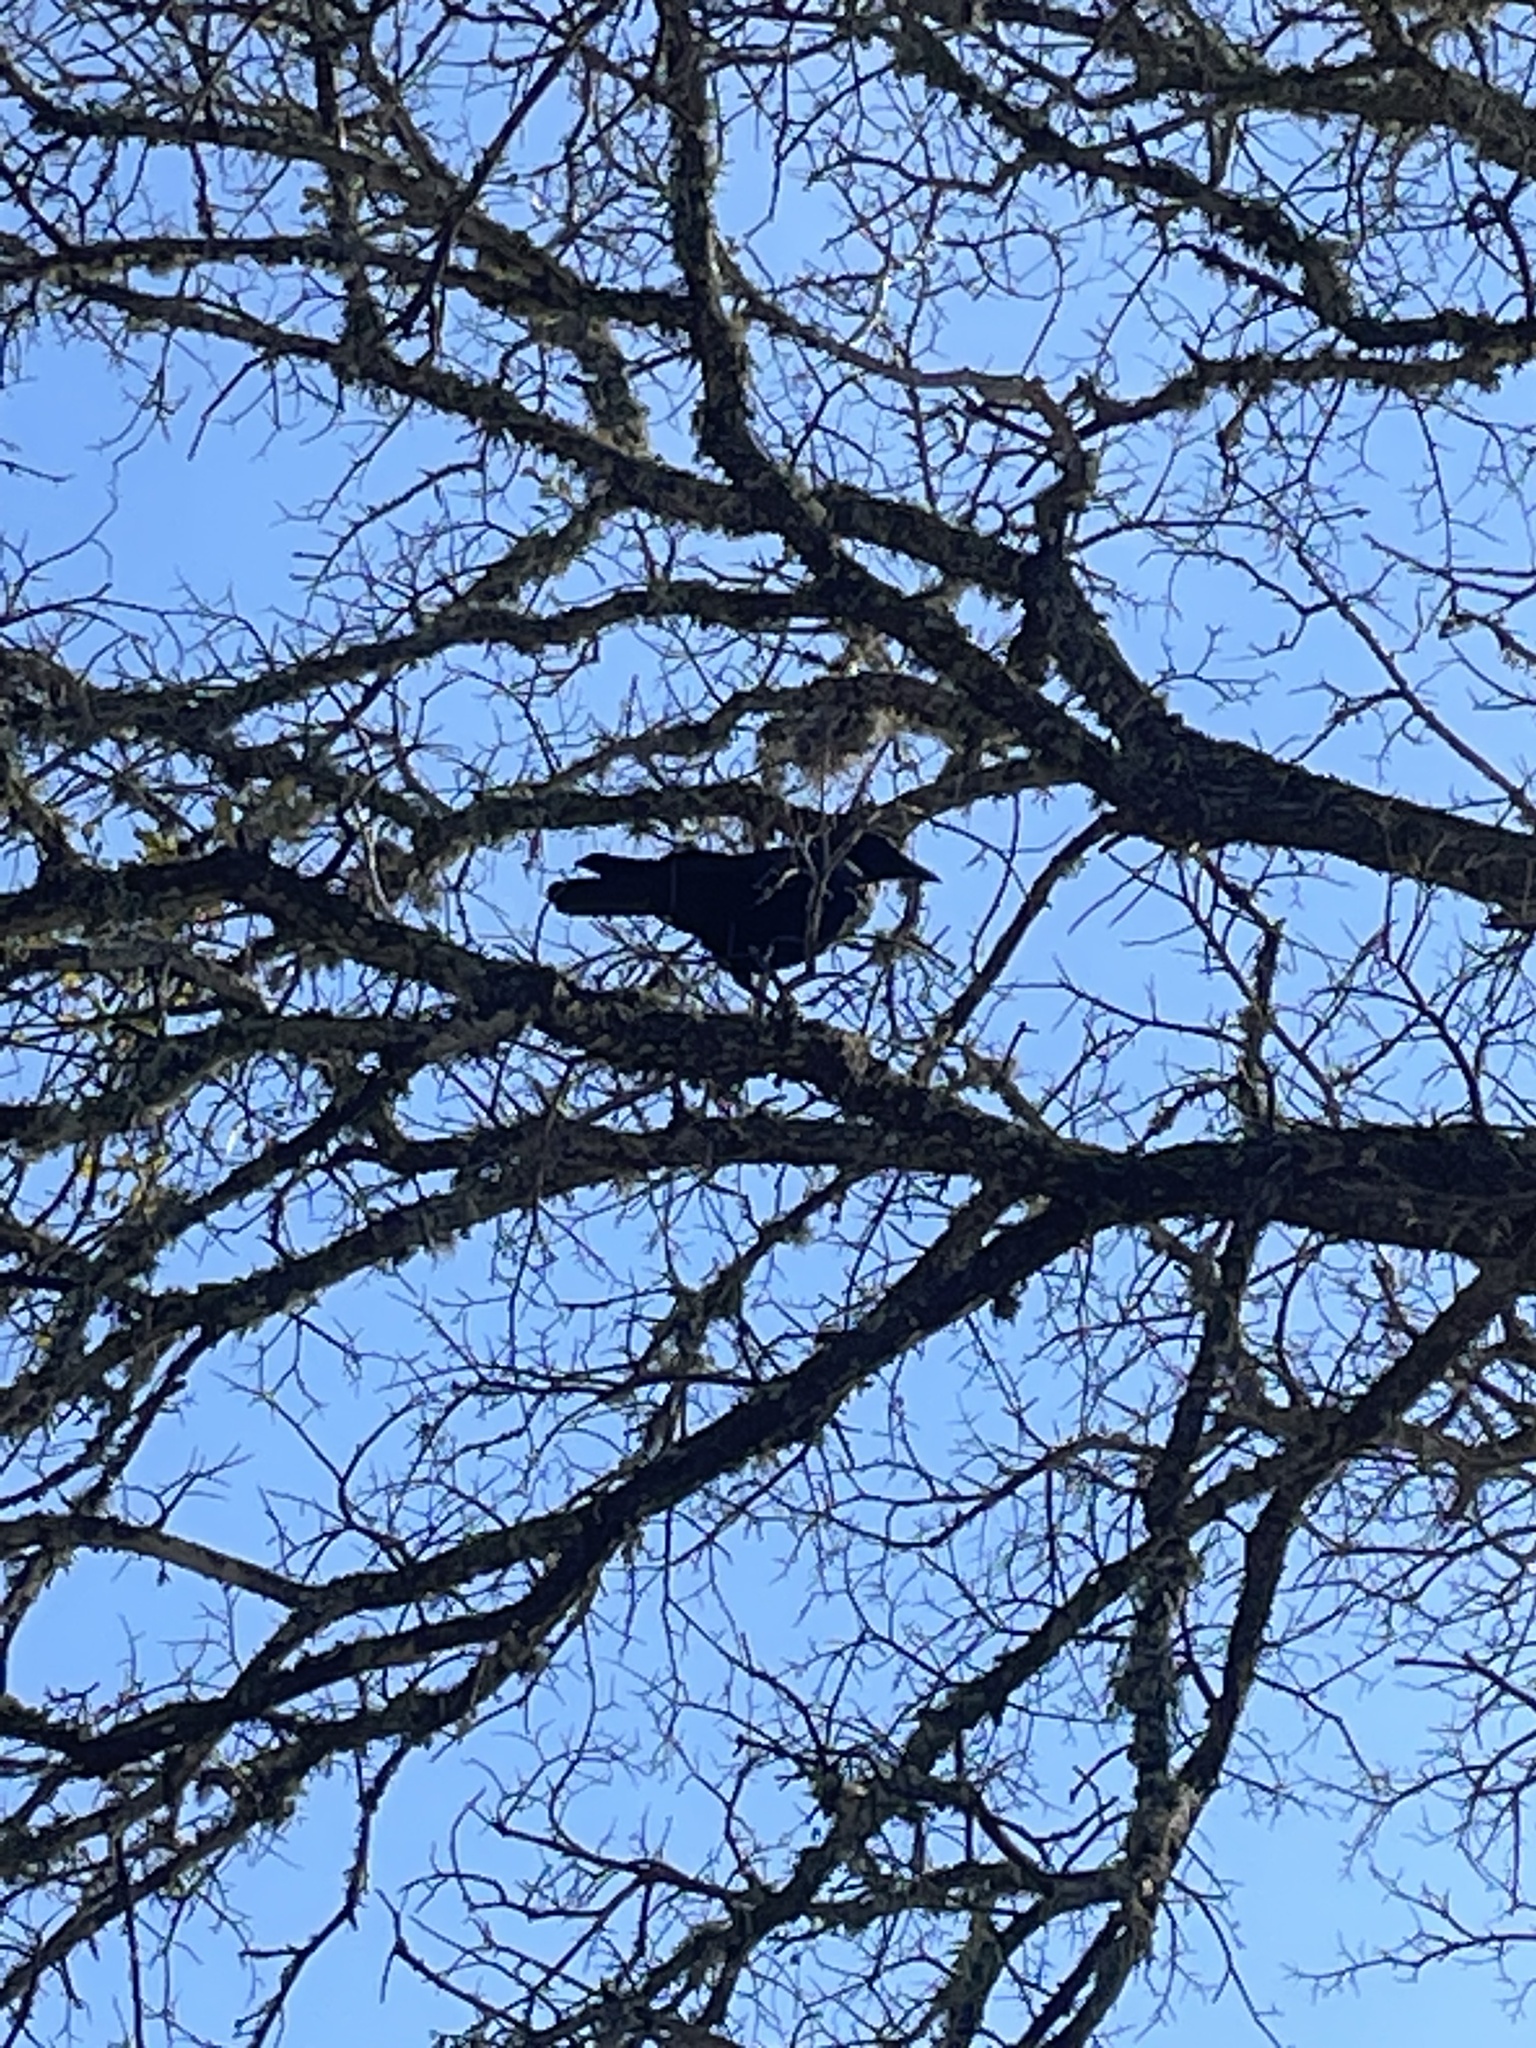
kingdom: Animalia
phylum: Chordata
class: Aves
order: Passeriformes
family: Corvidae
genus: Corvus
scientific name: Corvus brachyrhynchos
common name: American crow
